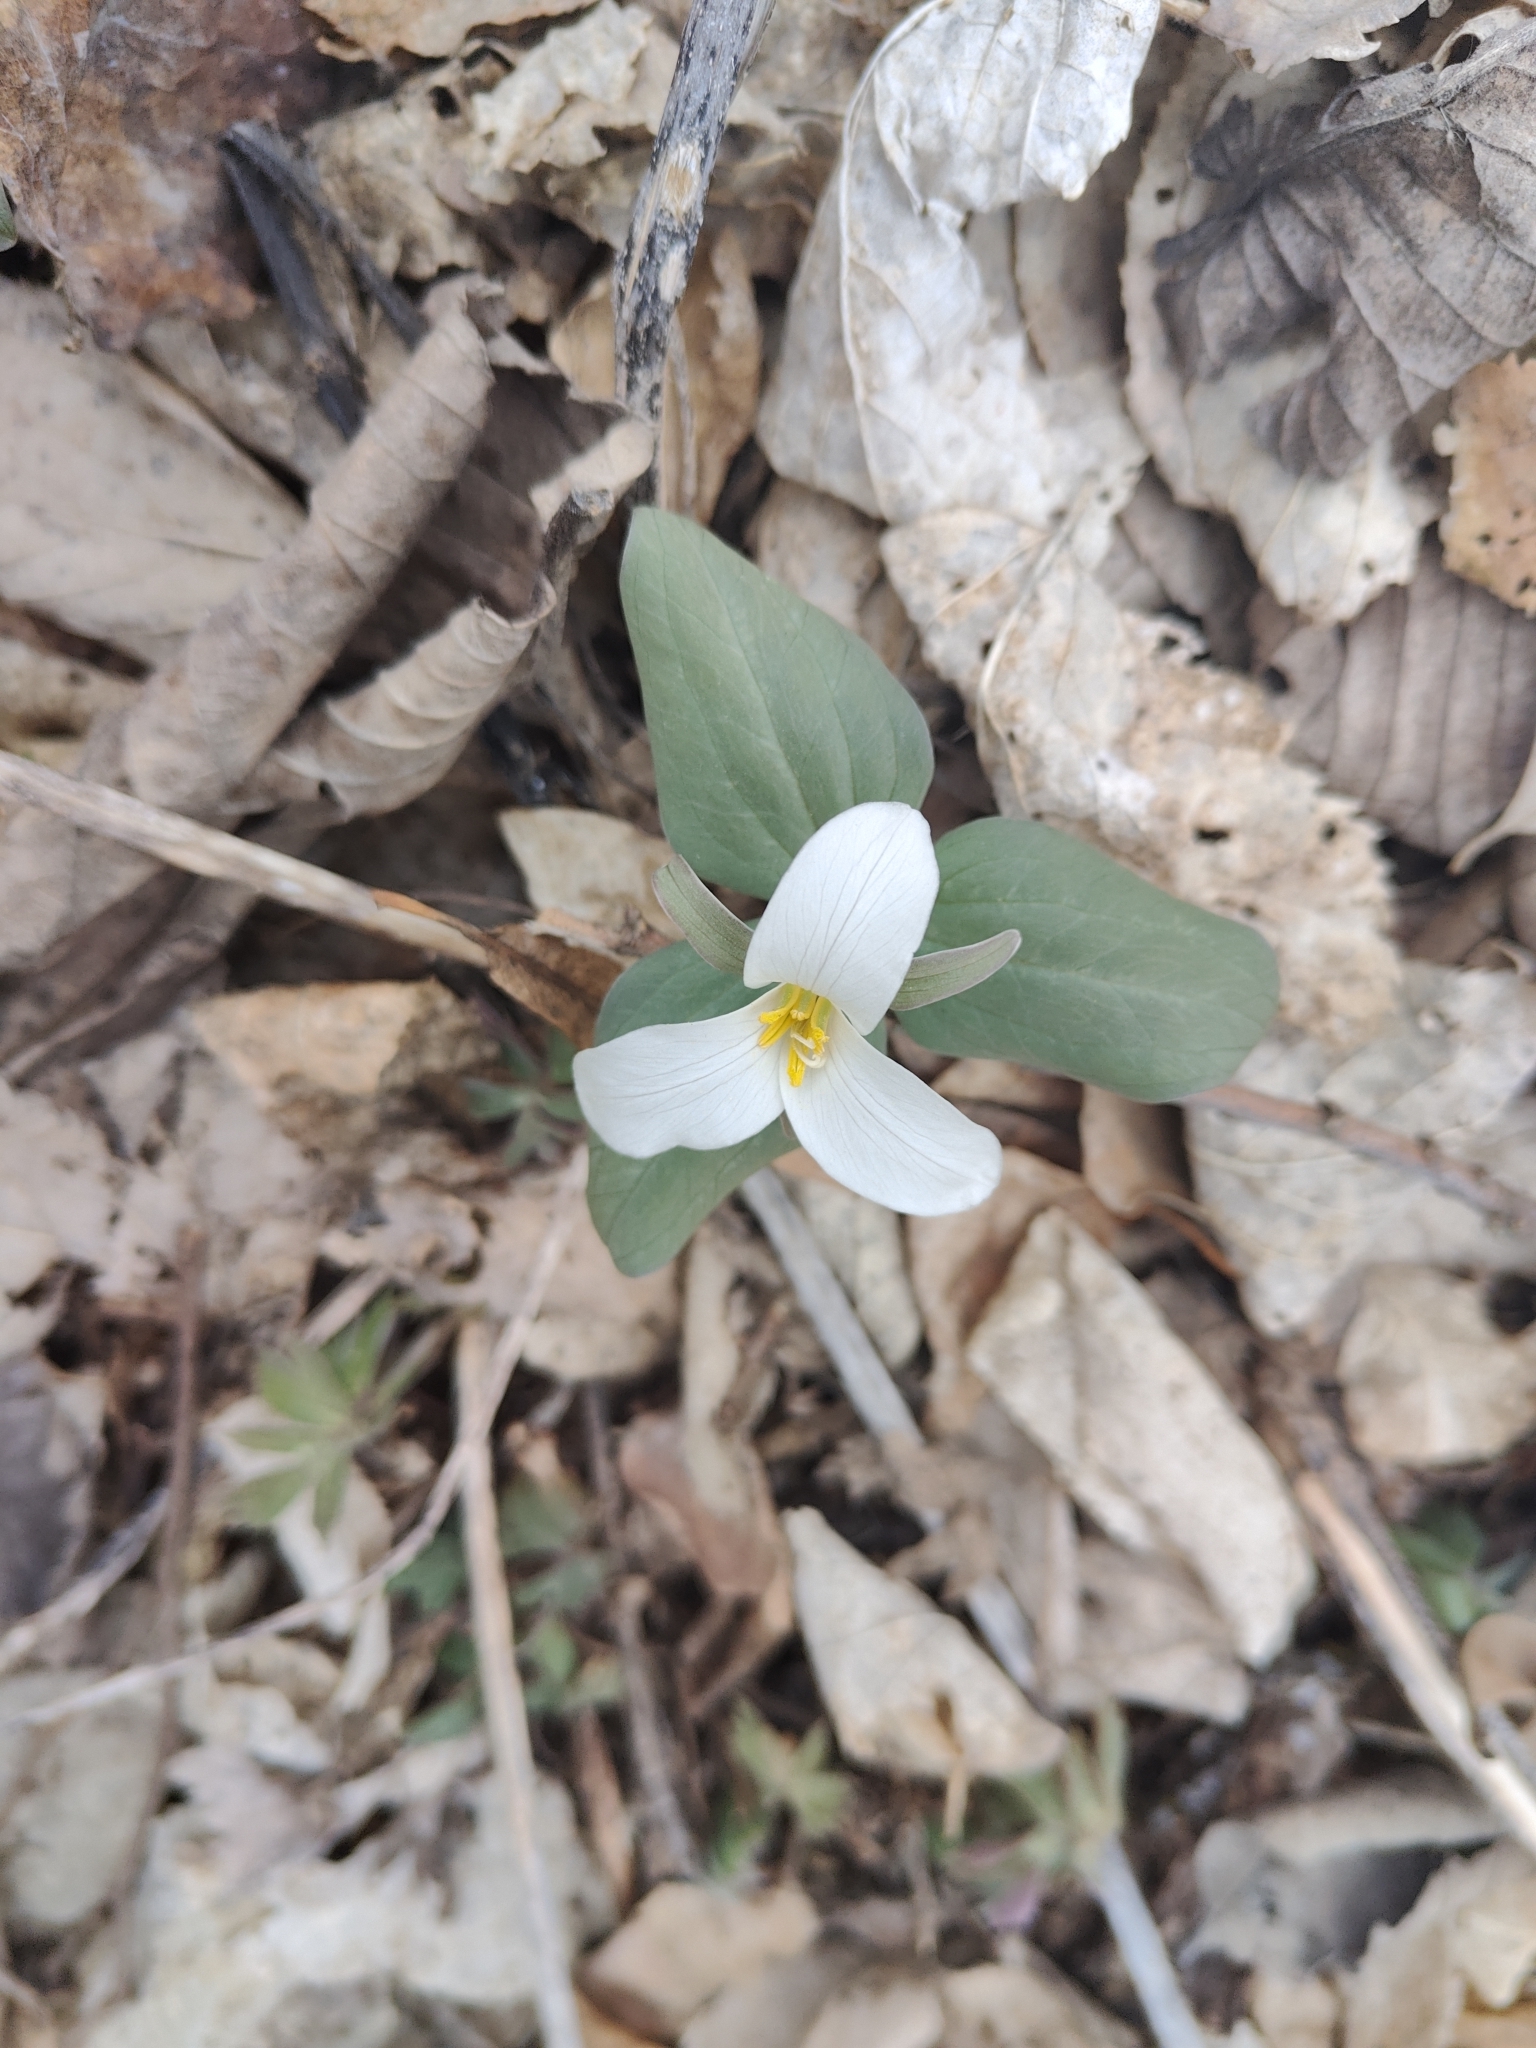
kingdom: Plantae
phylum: Tracheophyta
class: Liliopsida
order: Liliales
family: Melanthiaceae
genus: Trillium
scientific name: Trillium nivale
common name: Dwarf white trillium
